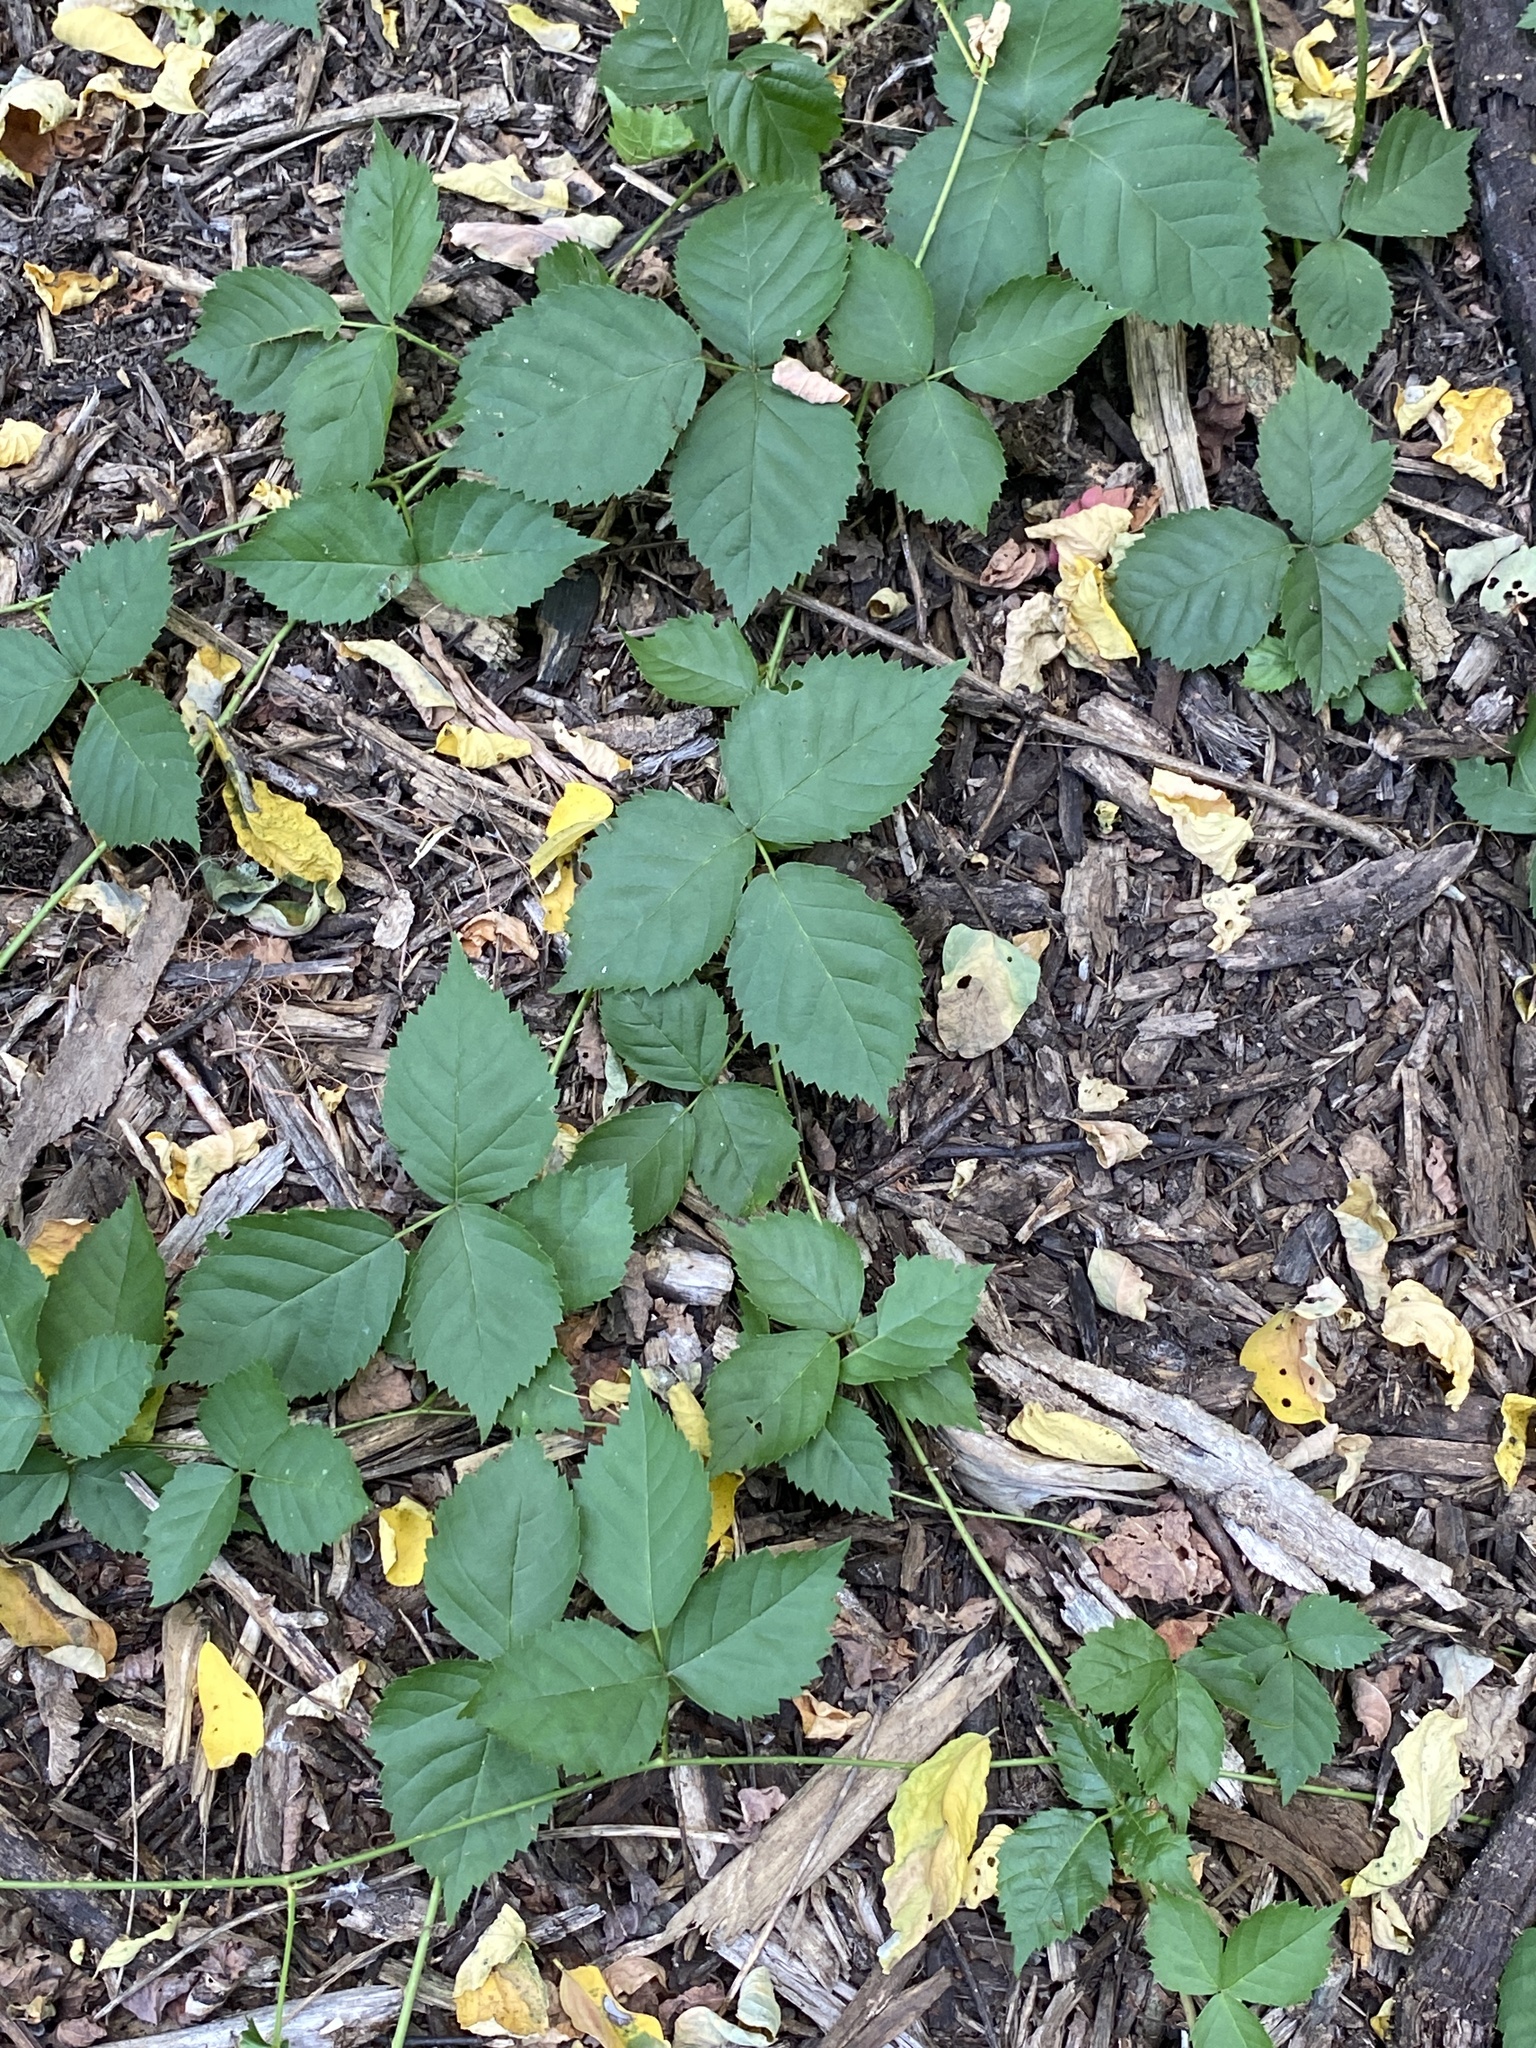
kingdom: Plantae
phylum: Tracheophyta
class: Magnoliopsida
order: Rosales
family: Rosaceae
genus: Rubus
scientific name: Rubus flagellaris
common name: American dewberry
